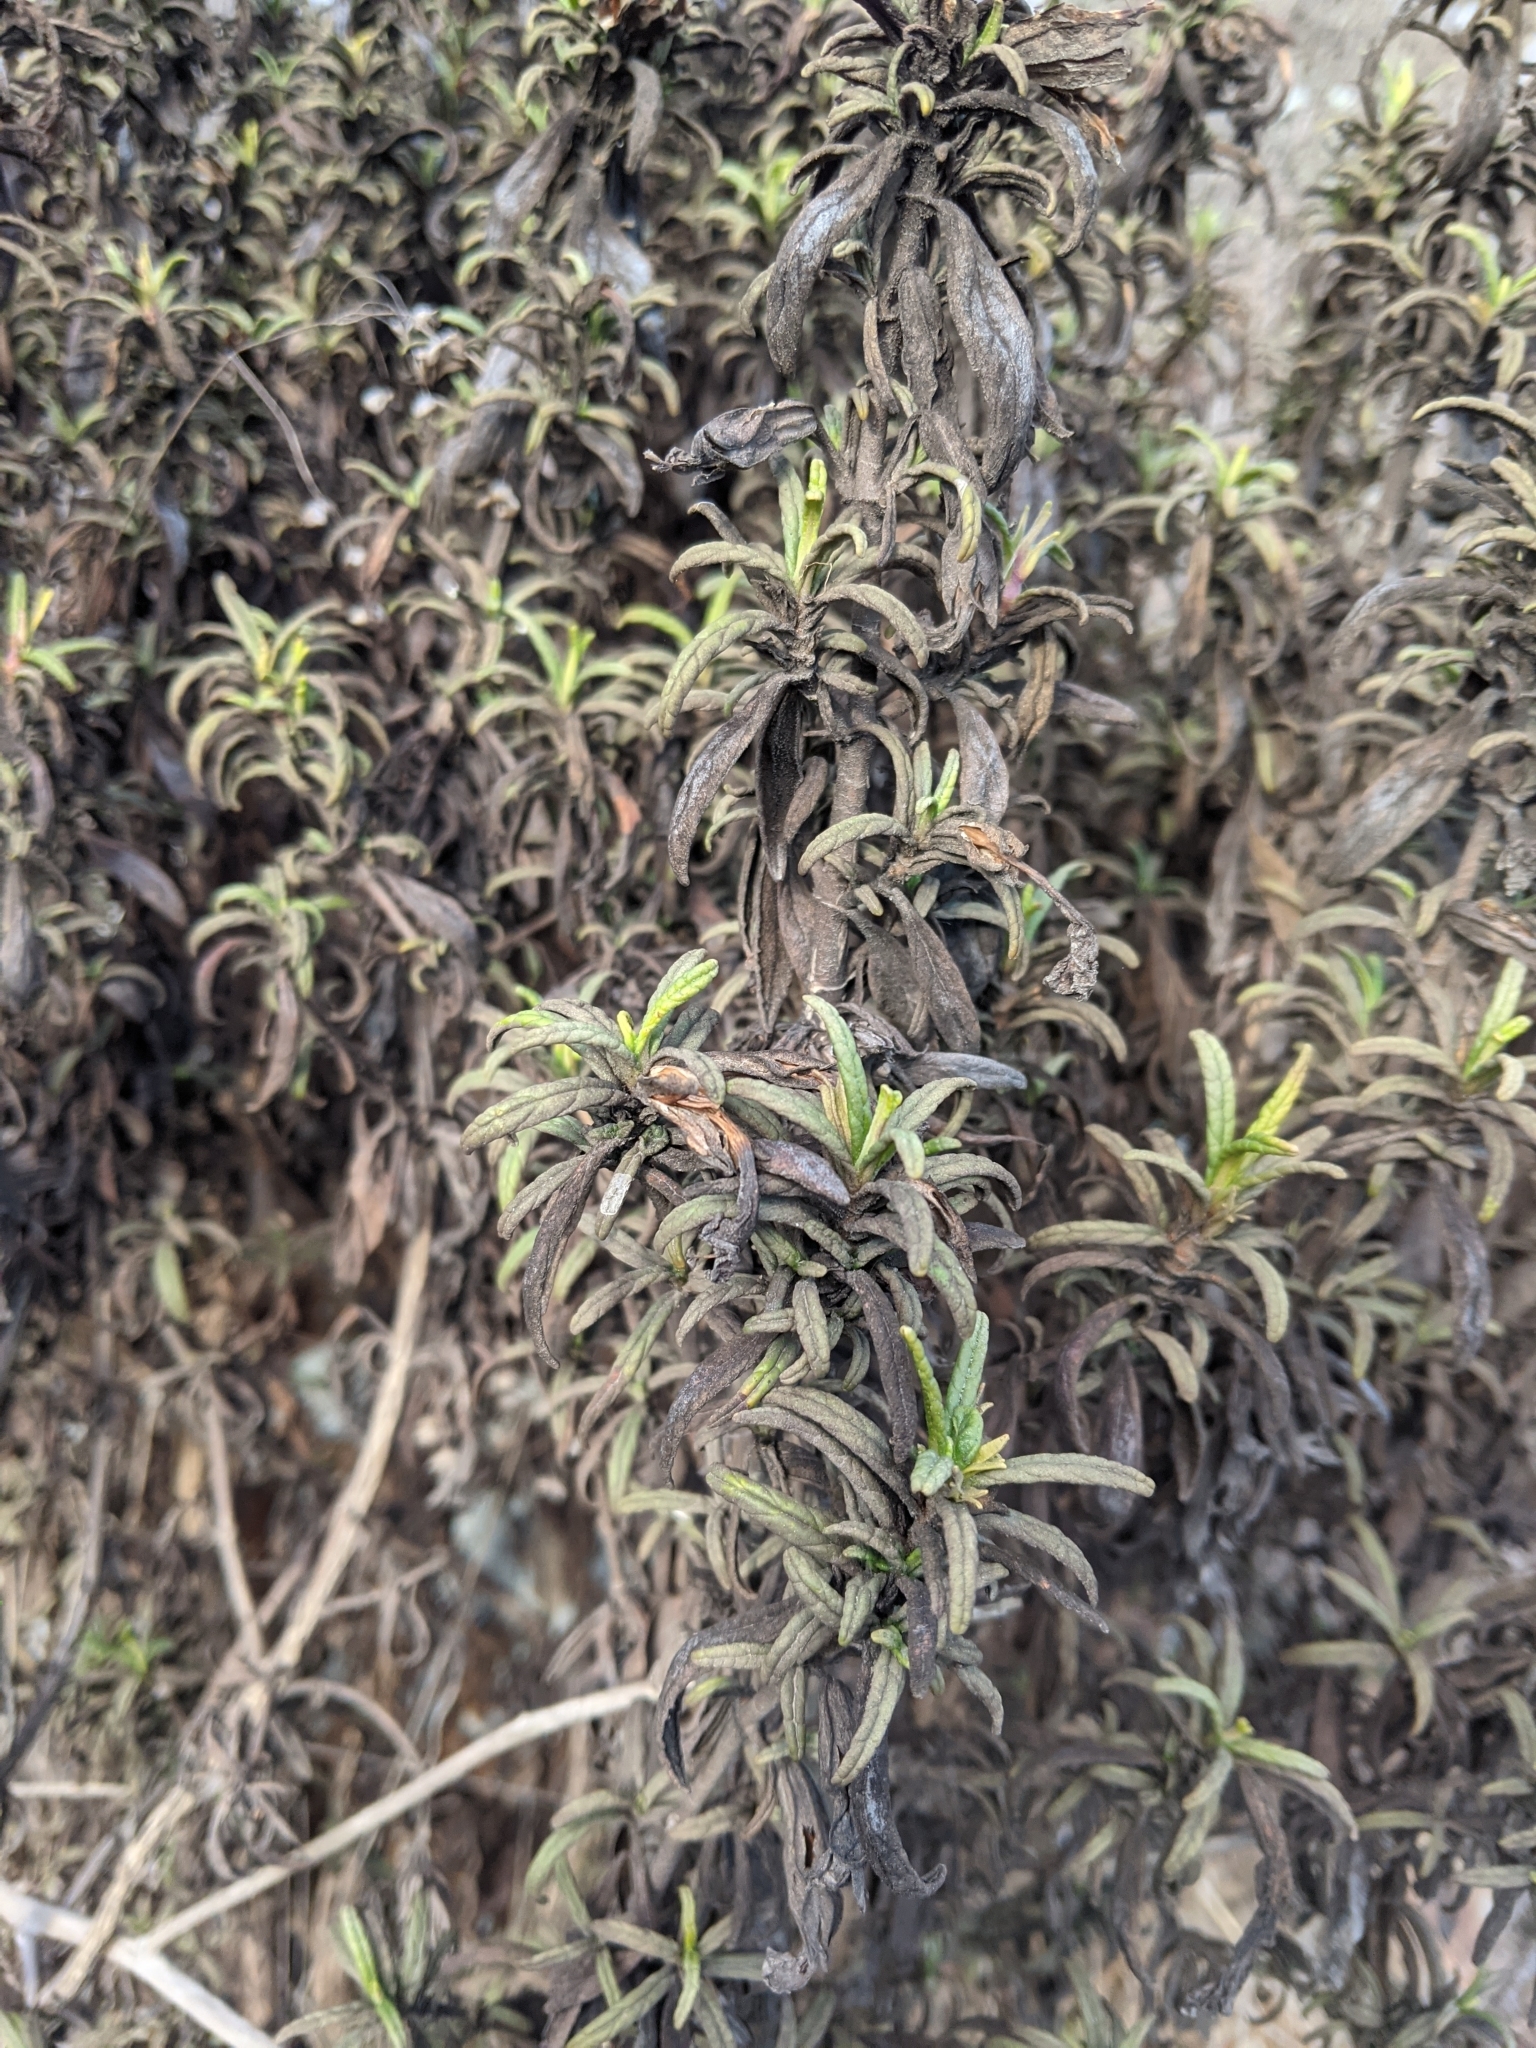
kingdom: Plantae
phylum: Tracheophyta
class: Magnoliopsida
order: Lamiales
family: Phrymaceae
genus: Diplacus
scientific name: Diplacus aurantiacus
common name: Bush monkey-flower
